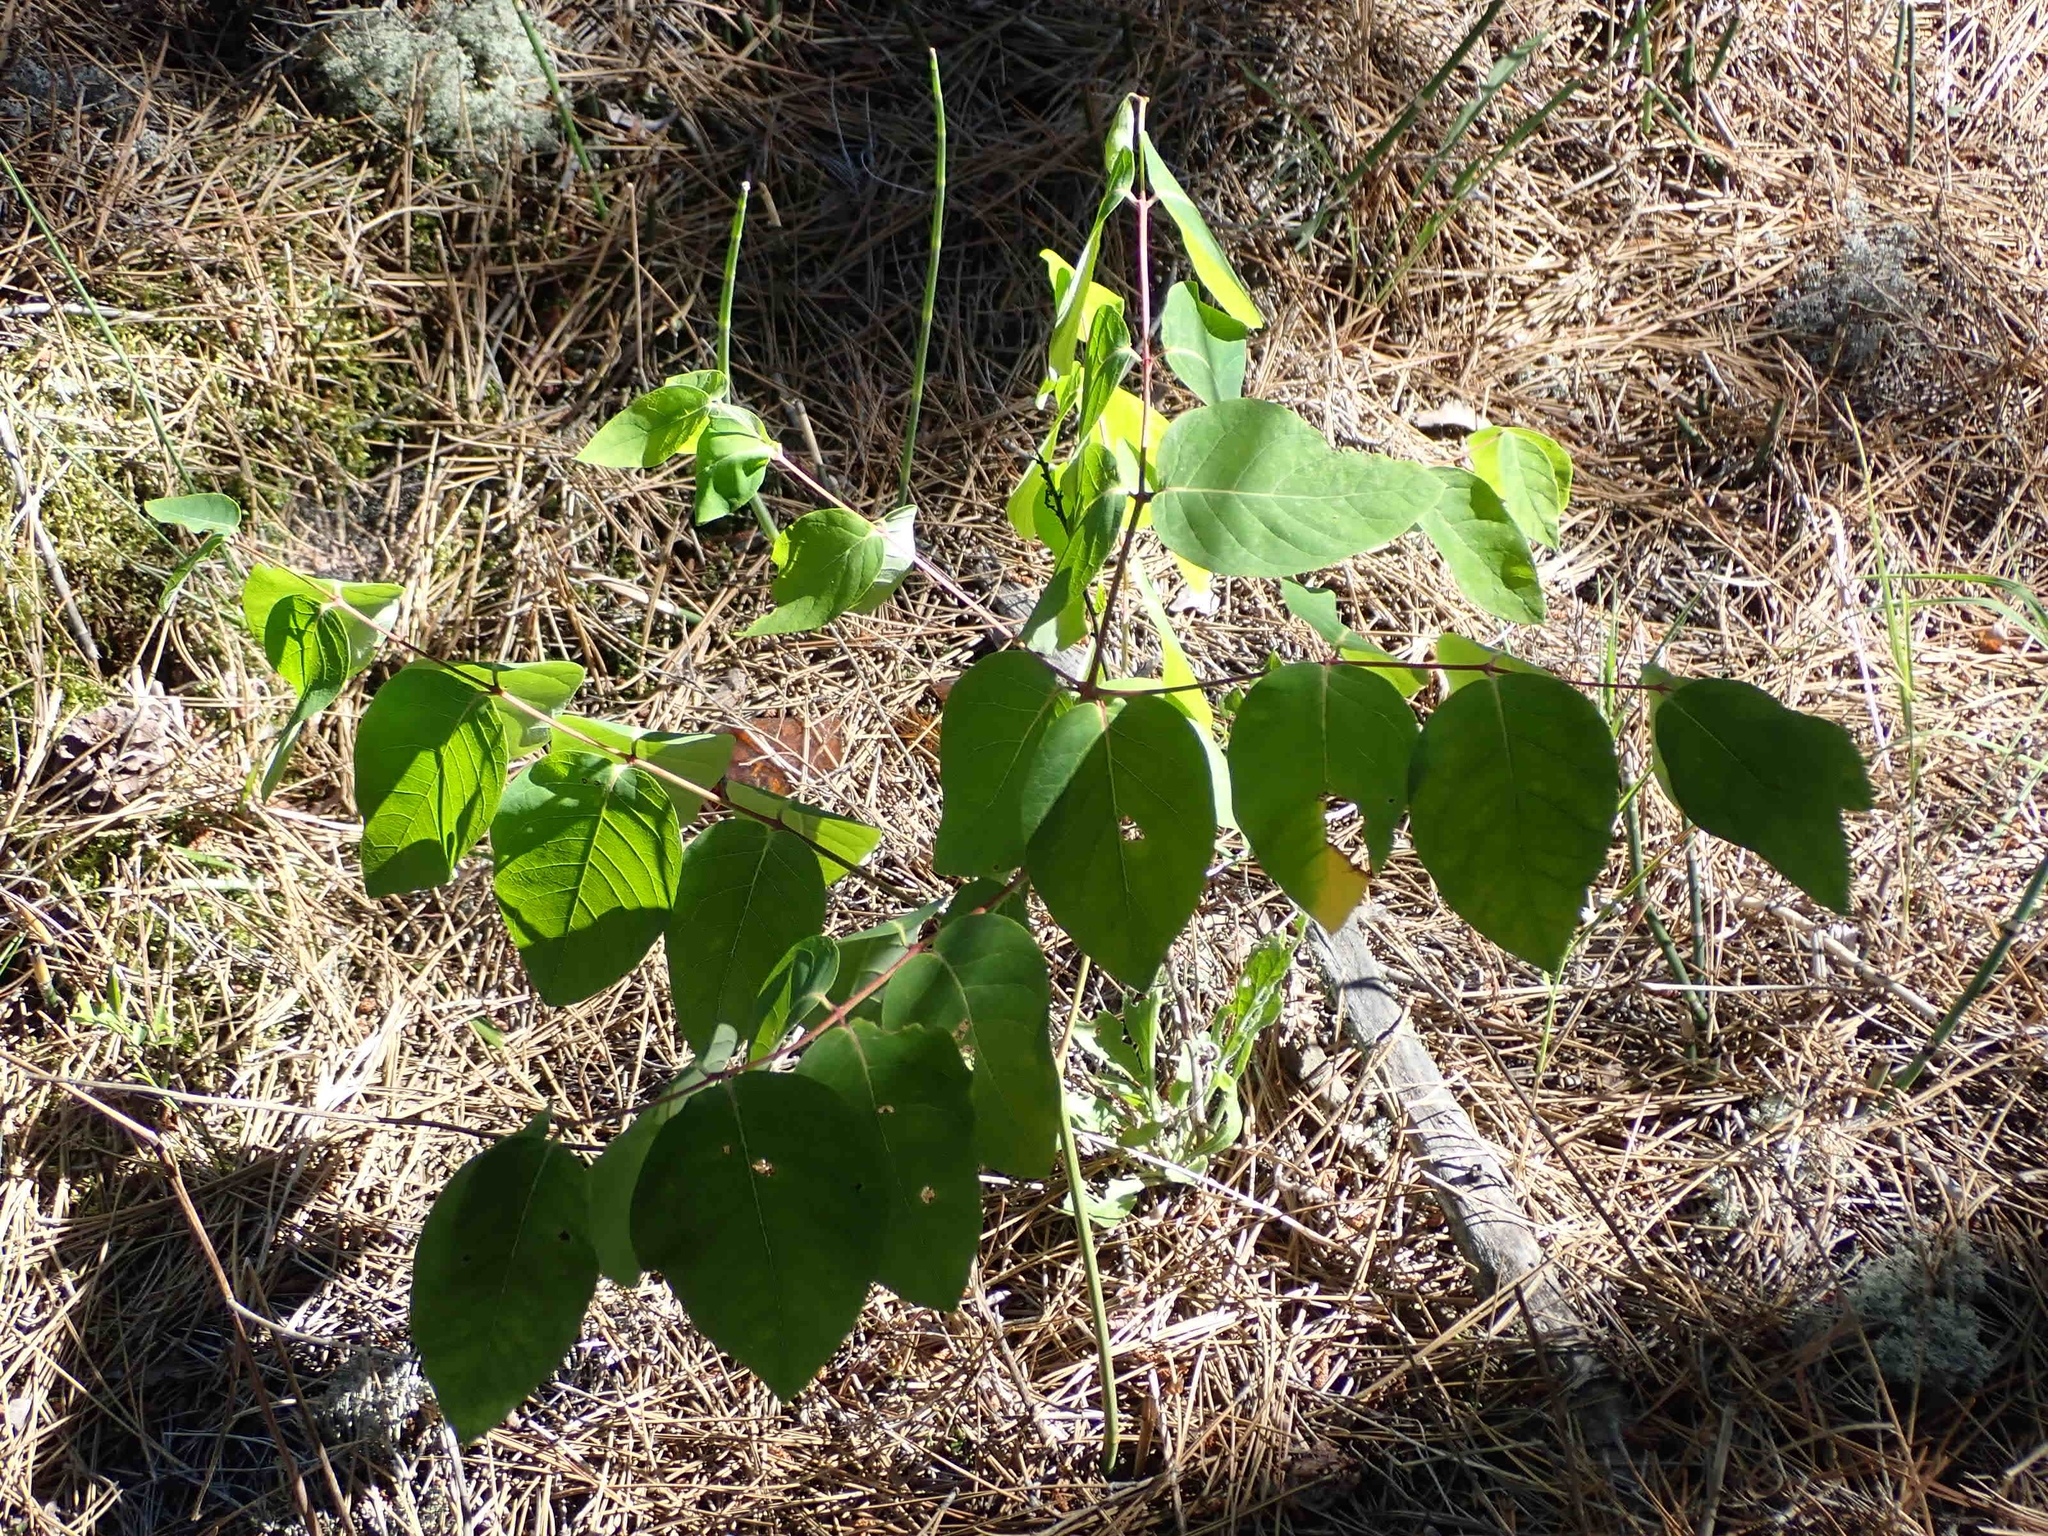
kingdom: Plantae
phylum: Tracheophyta
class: Magnoliopsida
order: Gentianales
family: Apocynaceae
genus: Apocynum
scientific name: Apocynum androsaemifolium
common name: Spreading dogbane
